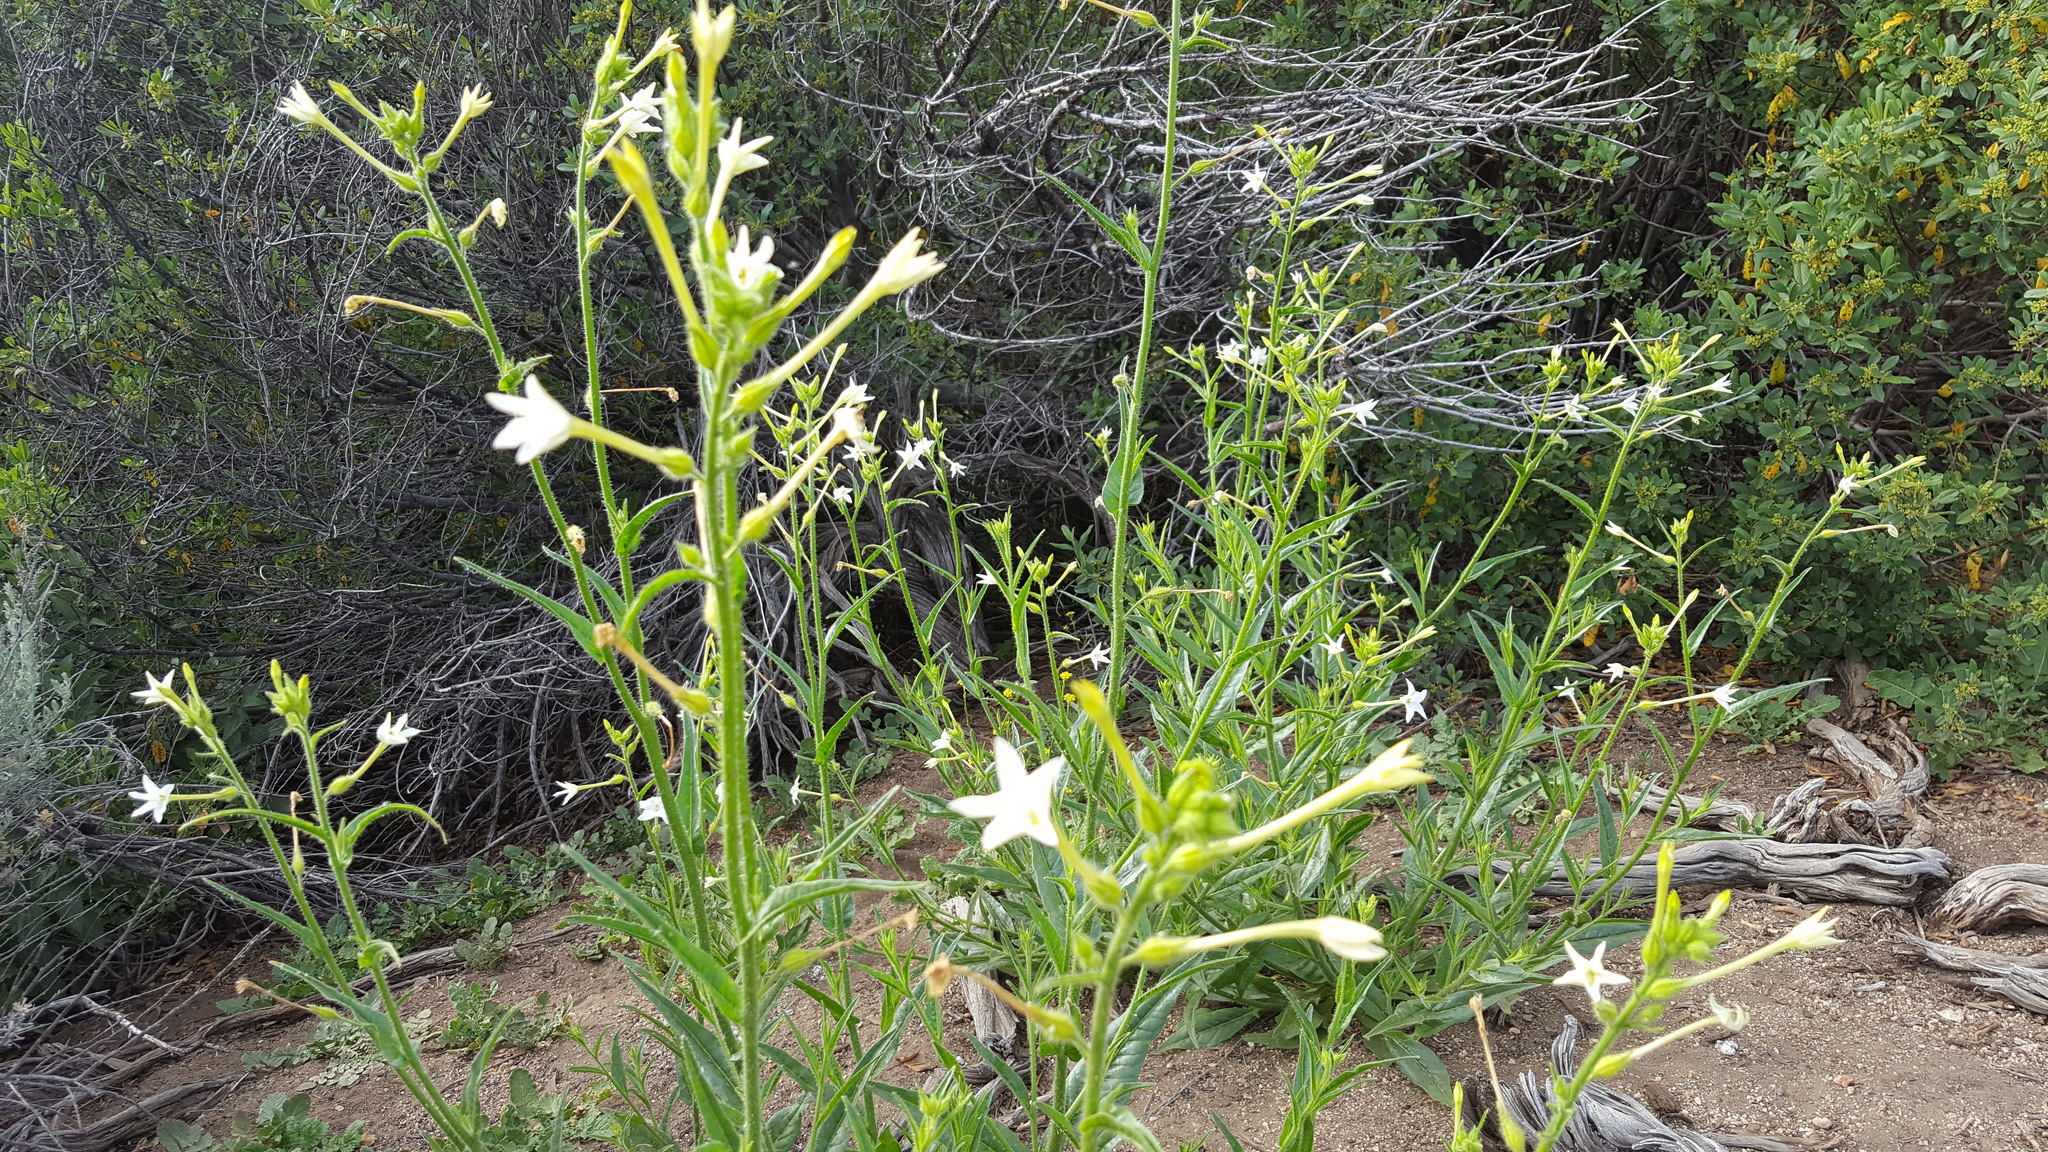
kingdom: Plantae
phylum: Tracheophyta
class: Magnoliopsida
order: Solanales
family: Solanaceae
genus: Nicotiana
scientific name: Nicotiana quadrivalvis
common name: Indian tobacco
